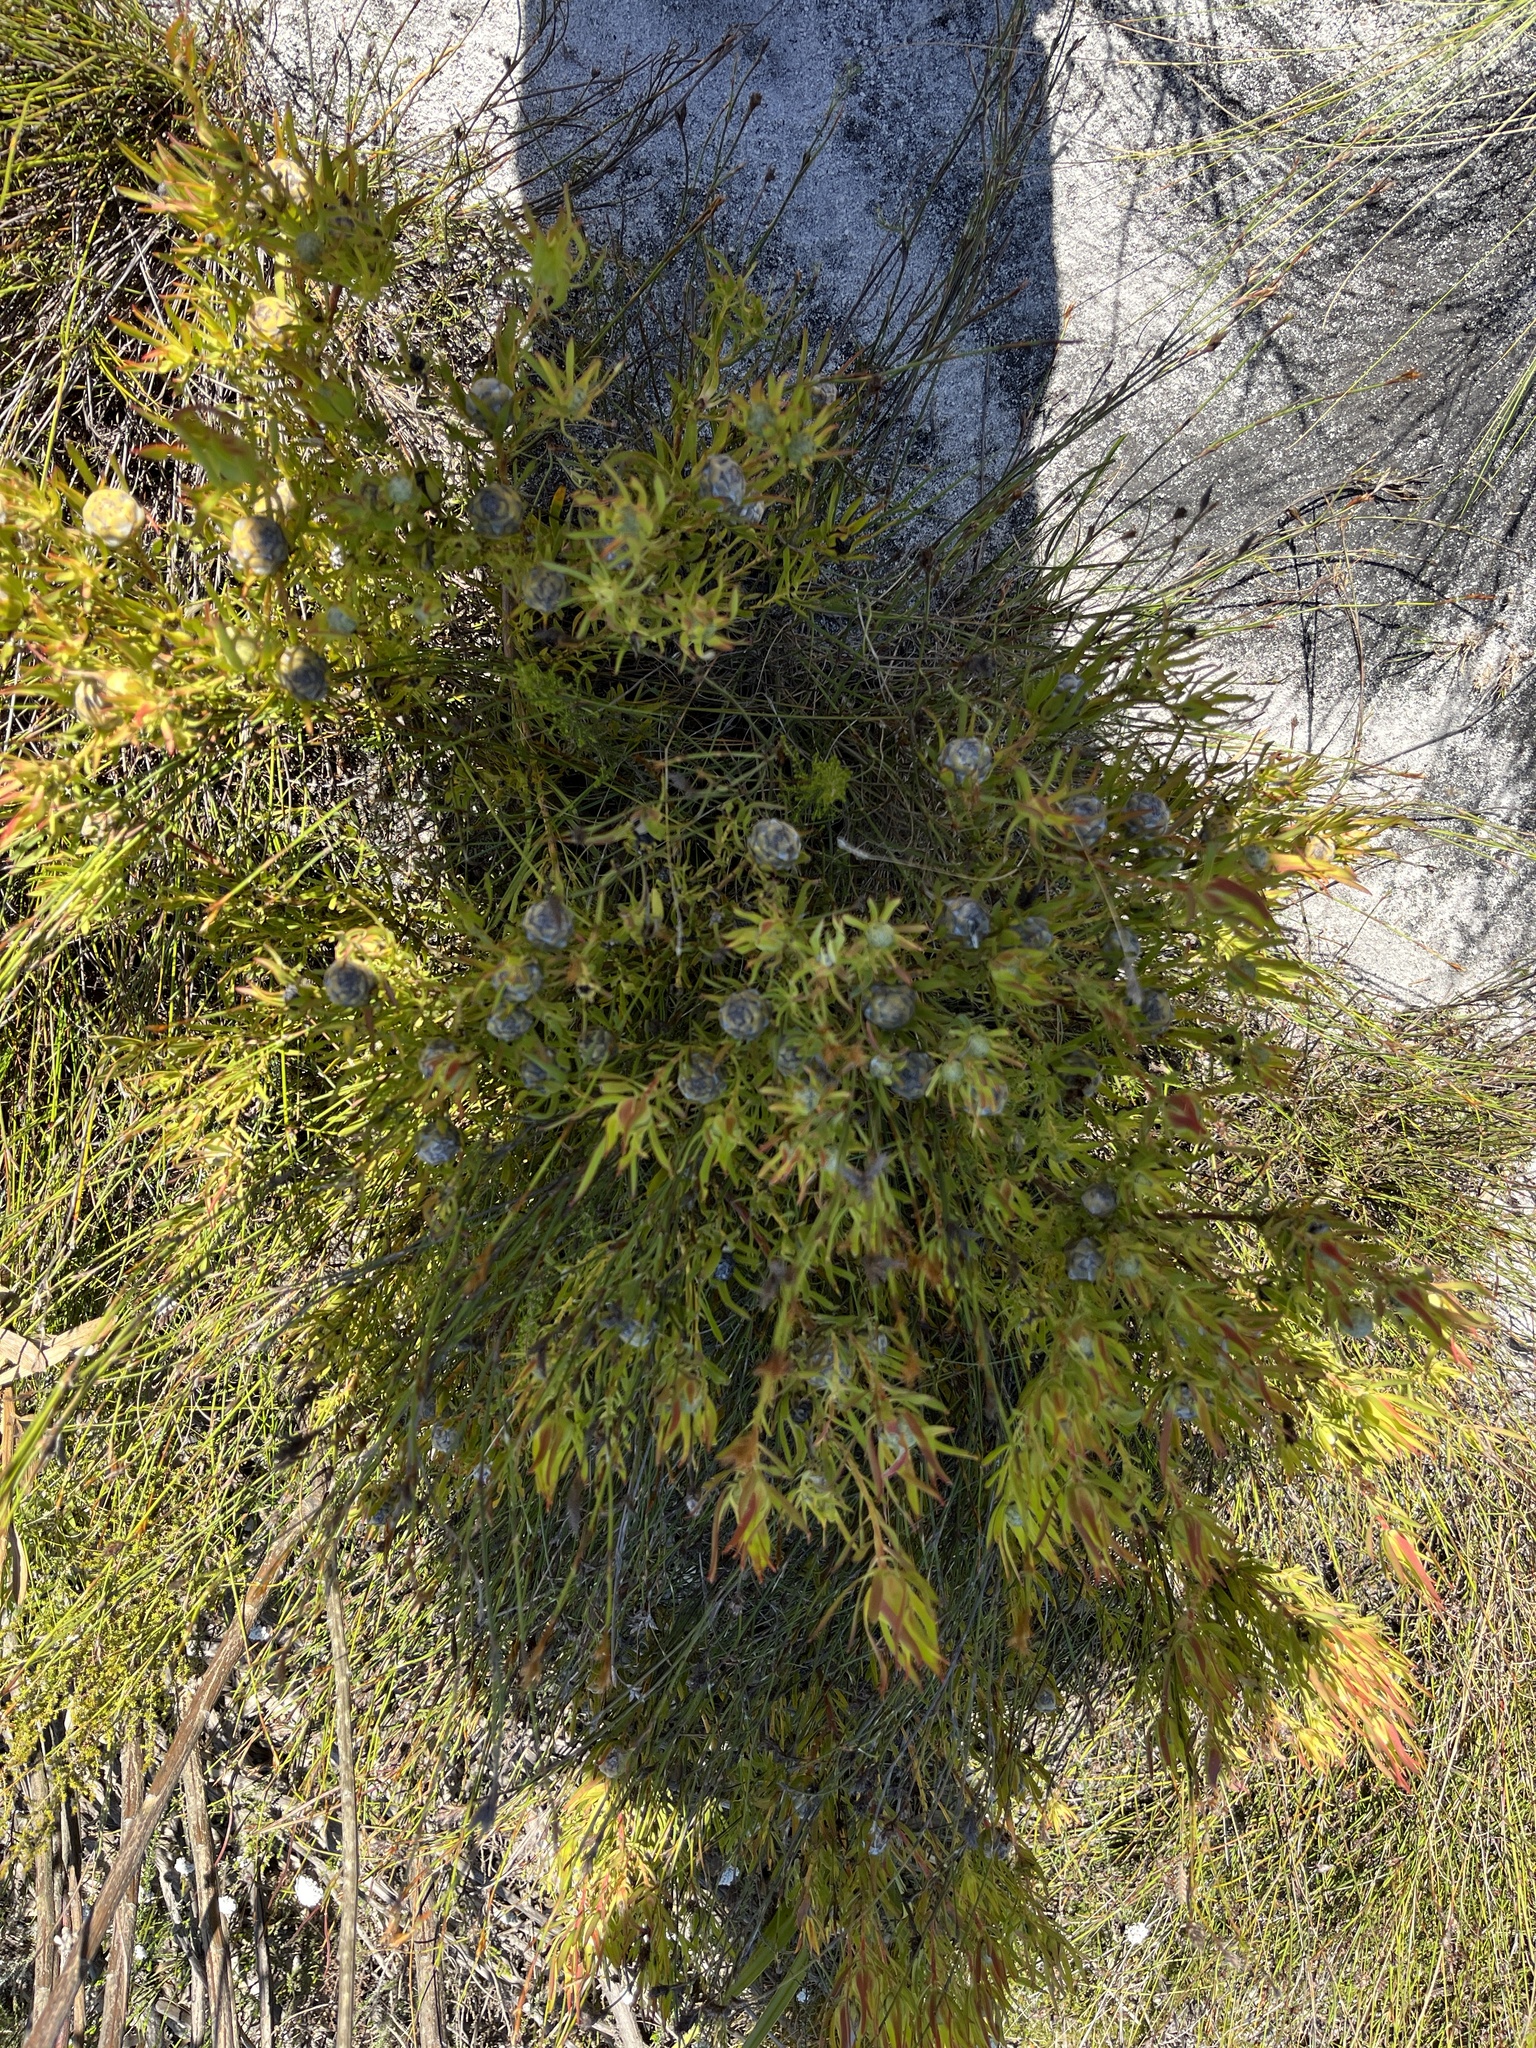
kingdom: Plantae
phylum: Tracheophyta
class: Magnoliopsida
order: Proteales
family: Proteaceae
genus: Leucadendron
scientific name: Leucadendron salignum
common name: Common sunshine conebush
